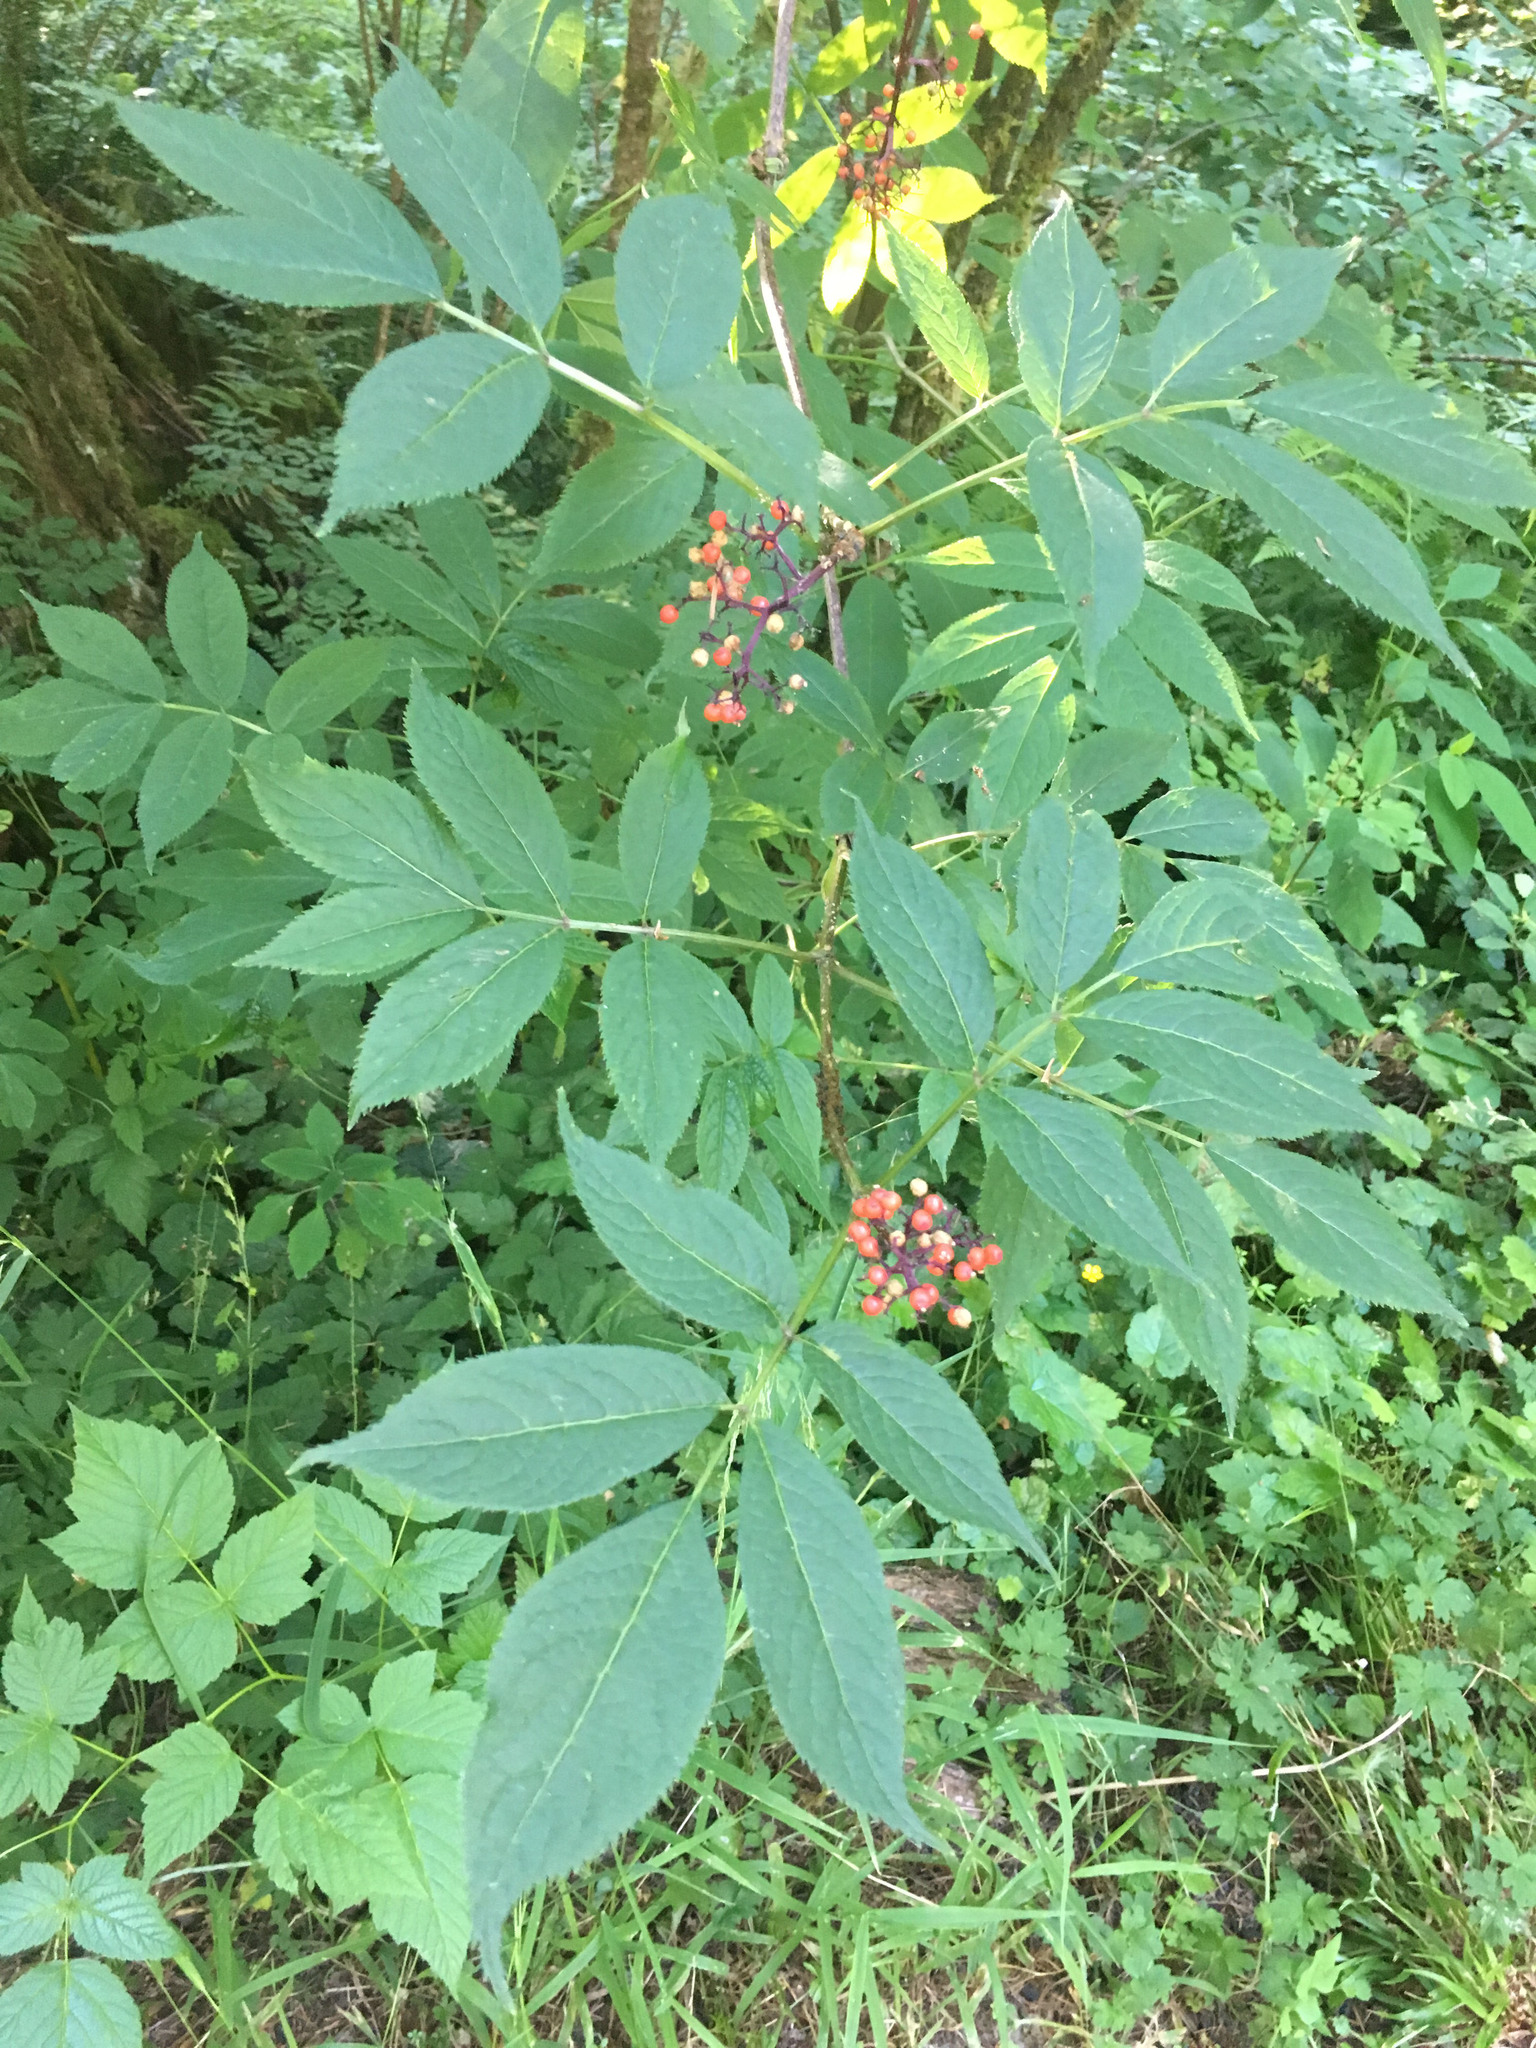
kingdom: Plantae
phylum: Tracheophyta
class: Magnoliopsida
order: Dipsacales
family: Viburnaceae
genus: Sambucus
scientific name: Sambucus racemosa
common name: Red-berried elder
